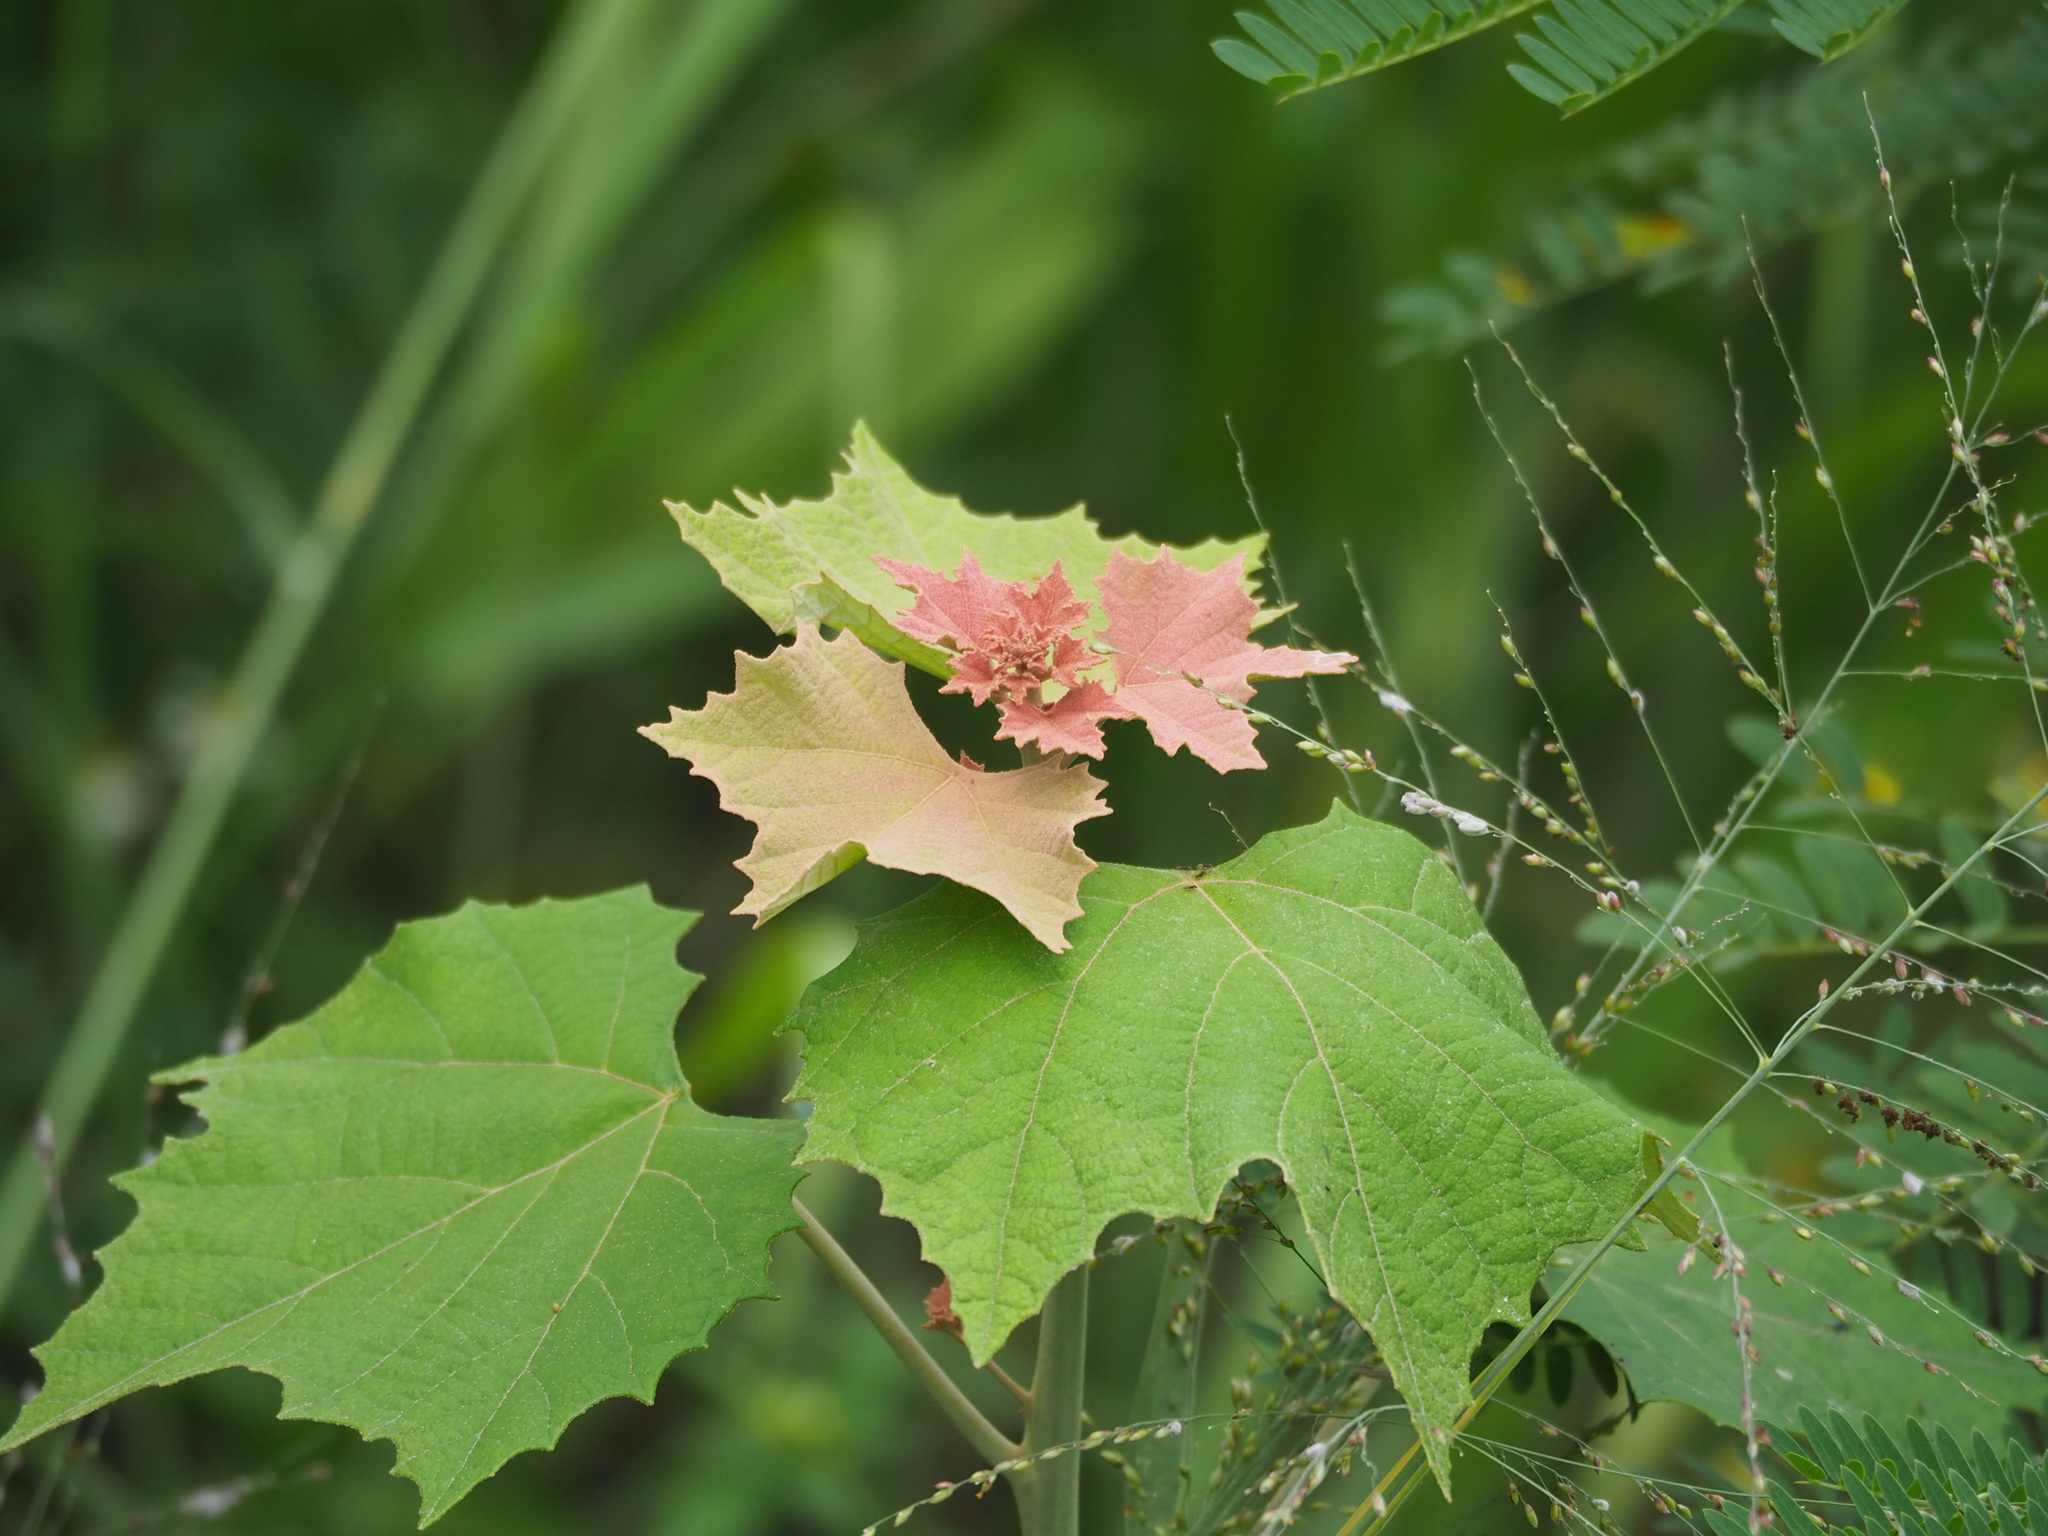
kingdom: Plantae
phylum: Tracheophyta
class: Magnoliopsida
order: Malpighiales
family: Euphorbiaceae
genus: Mallotus
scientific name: Mallotus paniculatus
